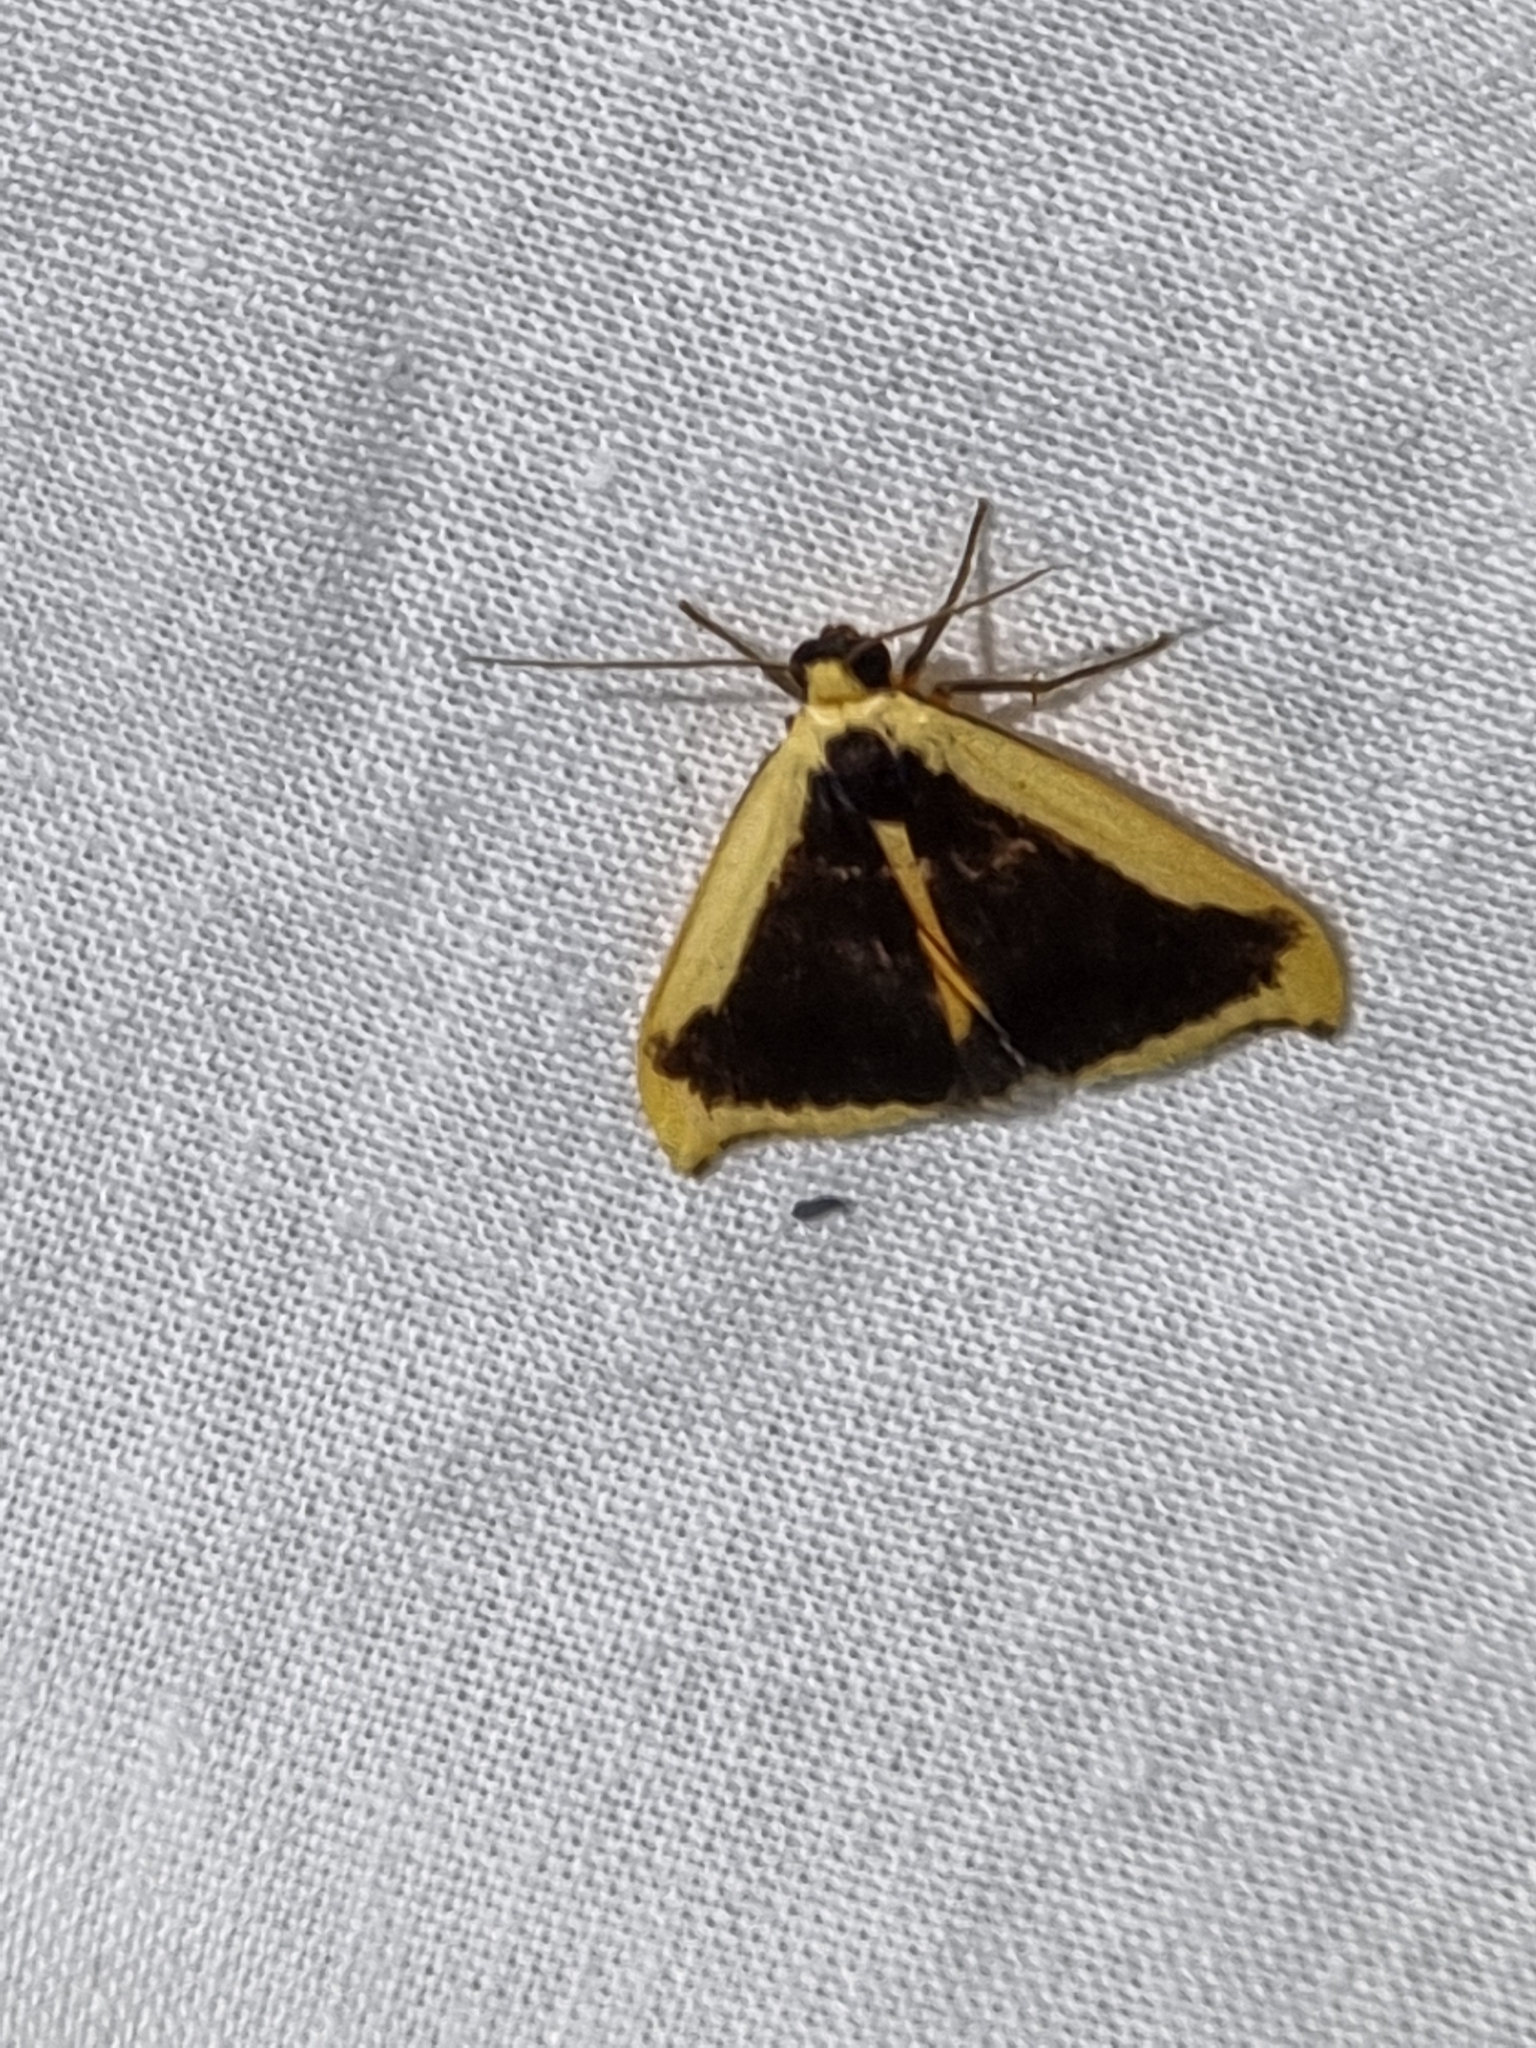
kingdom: Animalia
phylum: Arthropoda
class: Insecta
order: Lepidoptera
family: Erebidae
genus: Termessa
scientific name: Termessa conographa
